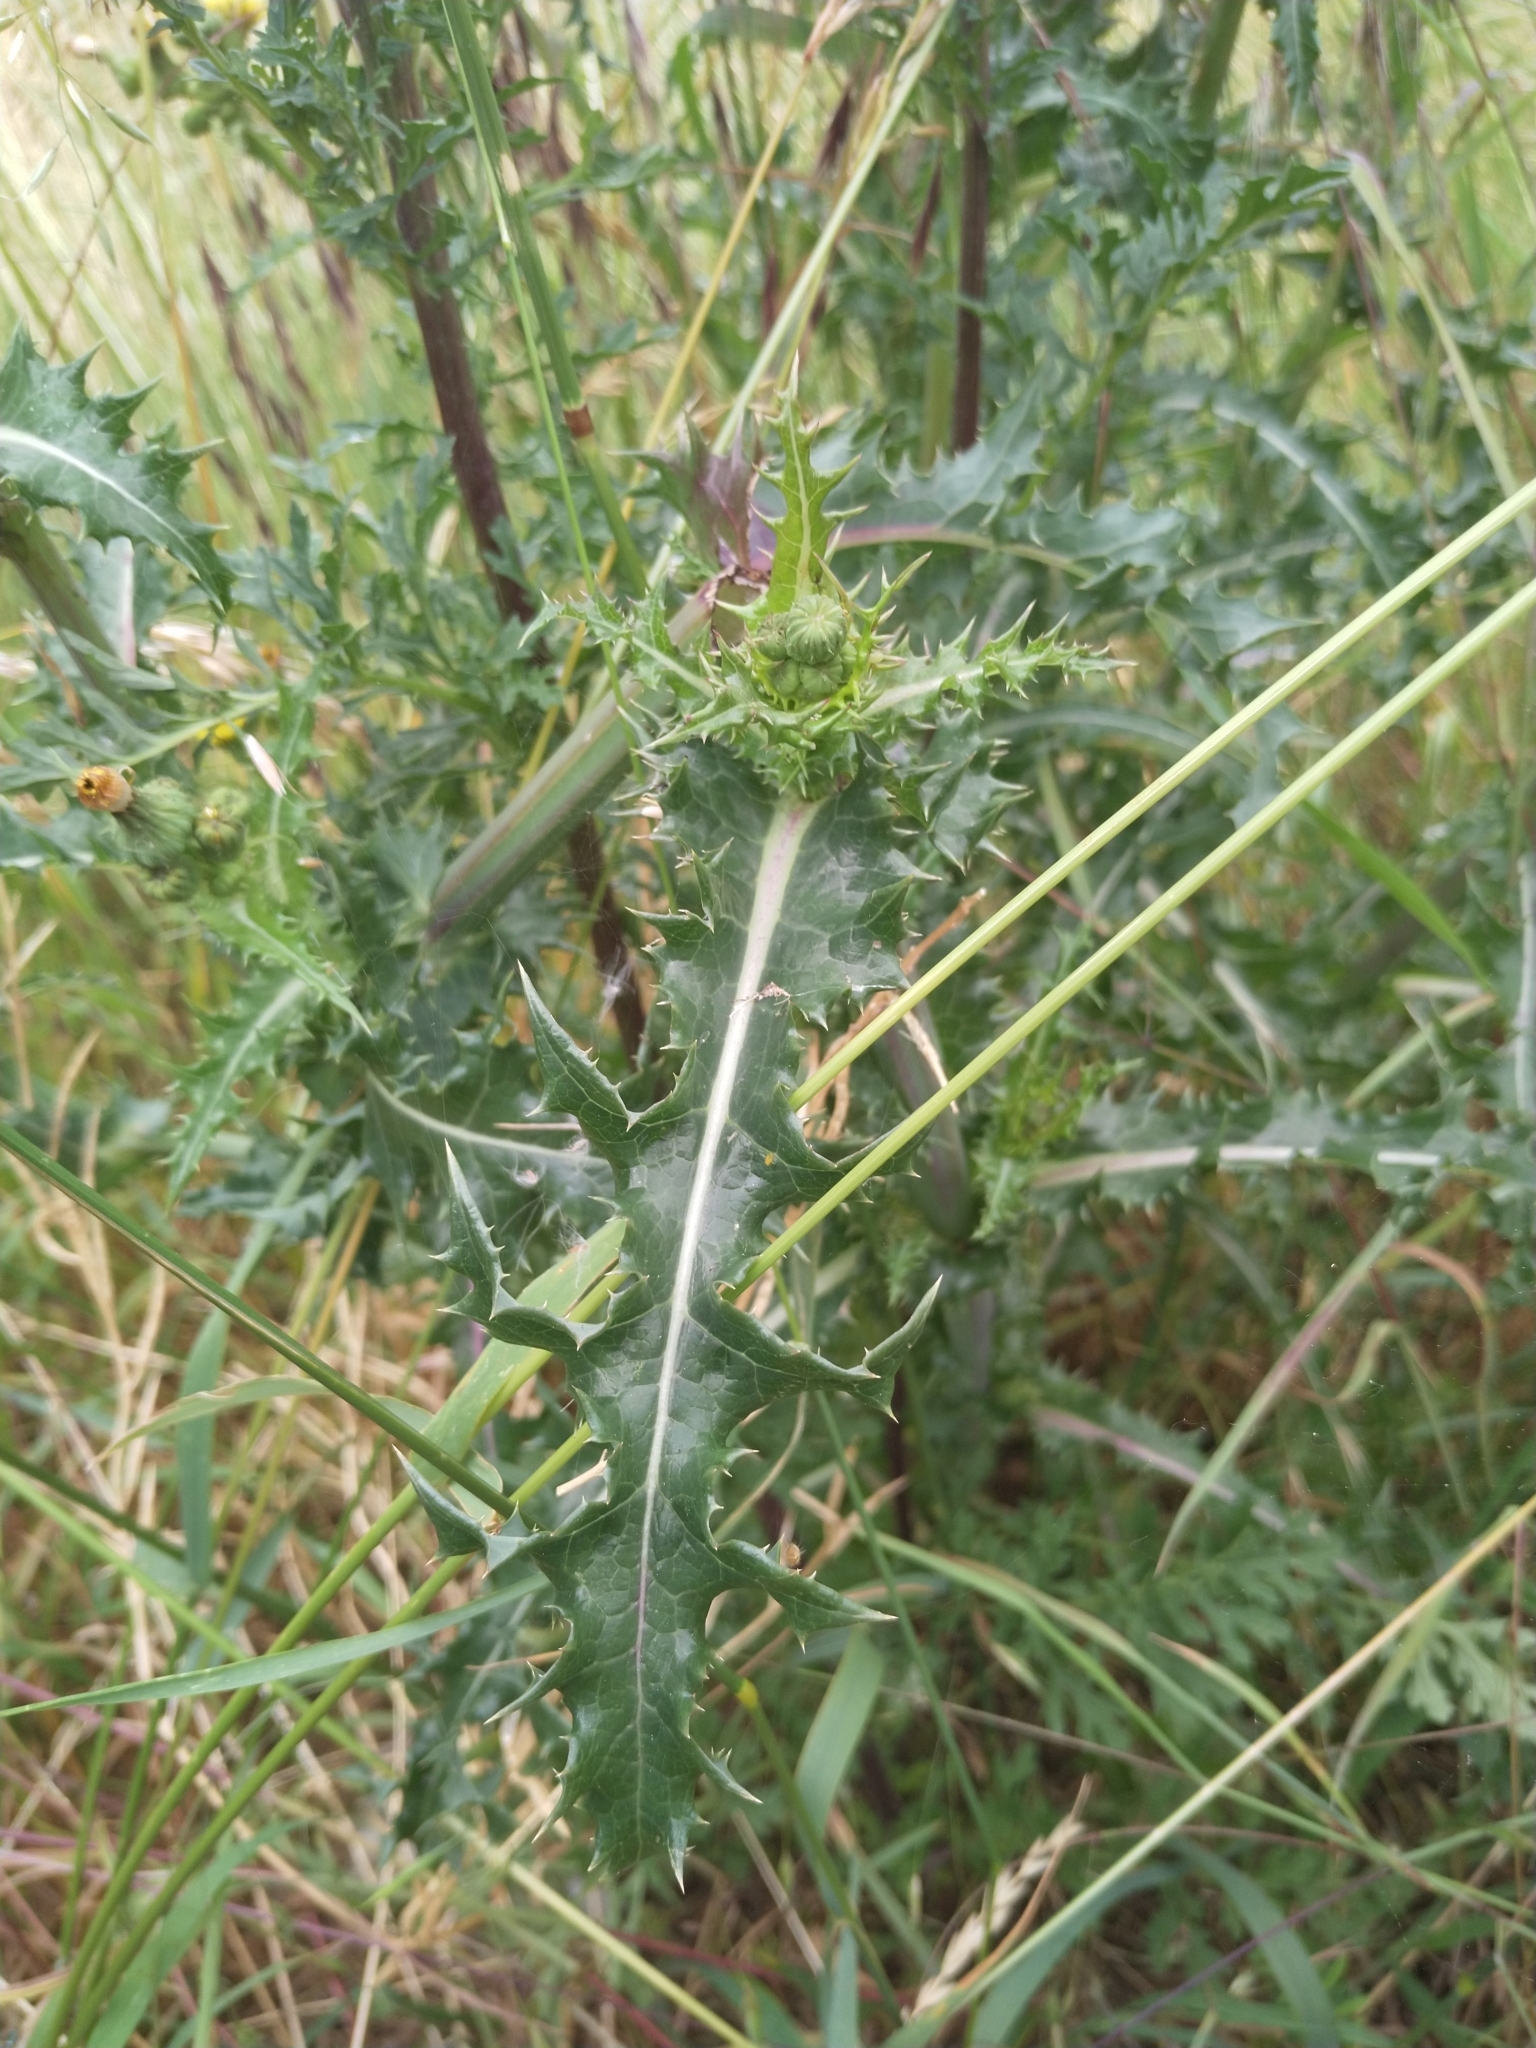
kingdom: Plantae
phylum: Tracheophyta
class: Magnoliopsida
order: Asterales
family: Asteraceae
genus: Sonchus
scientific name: Sonchus asper
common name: Prickly sow-thistle
